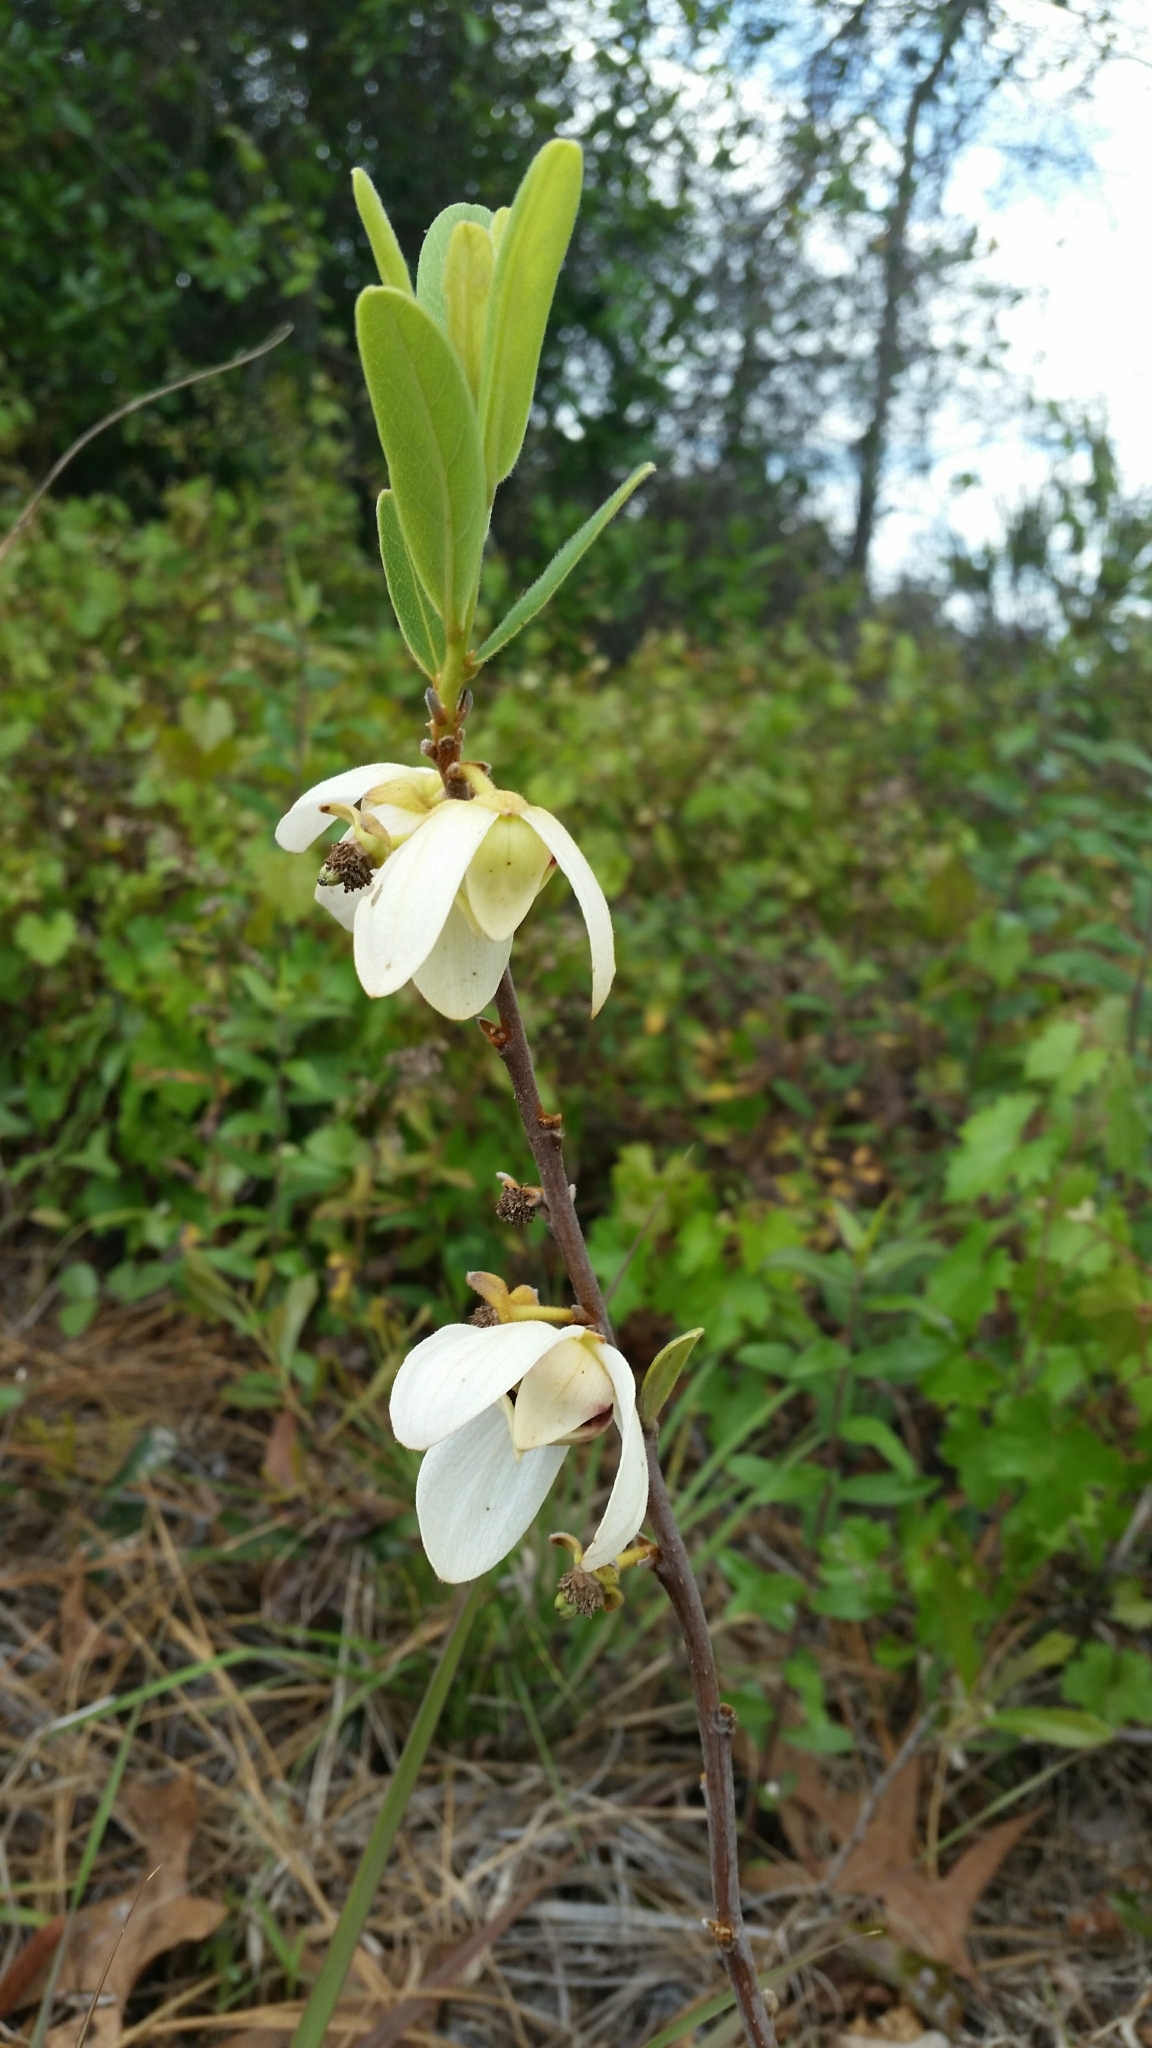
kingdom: Plantae
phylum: Tracheophyta
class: Magnoliopsida
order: Magnoliales
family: Annonaceae
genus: Asimina
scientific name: Asimina reticulata
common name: Flag pawpaw
